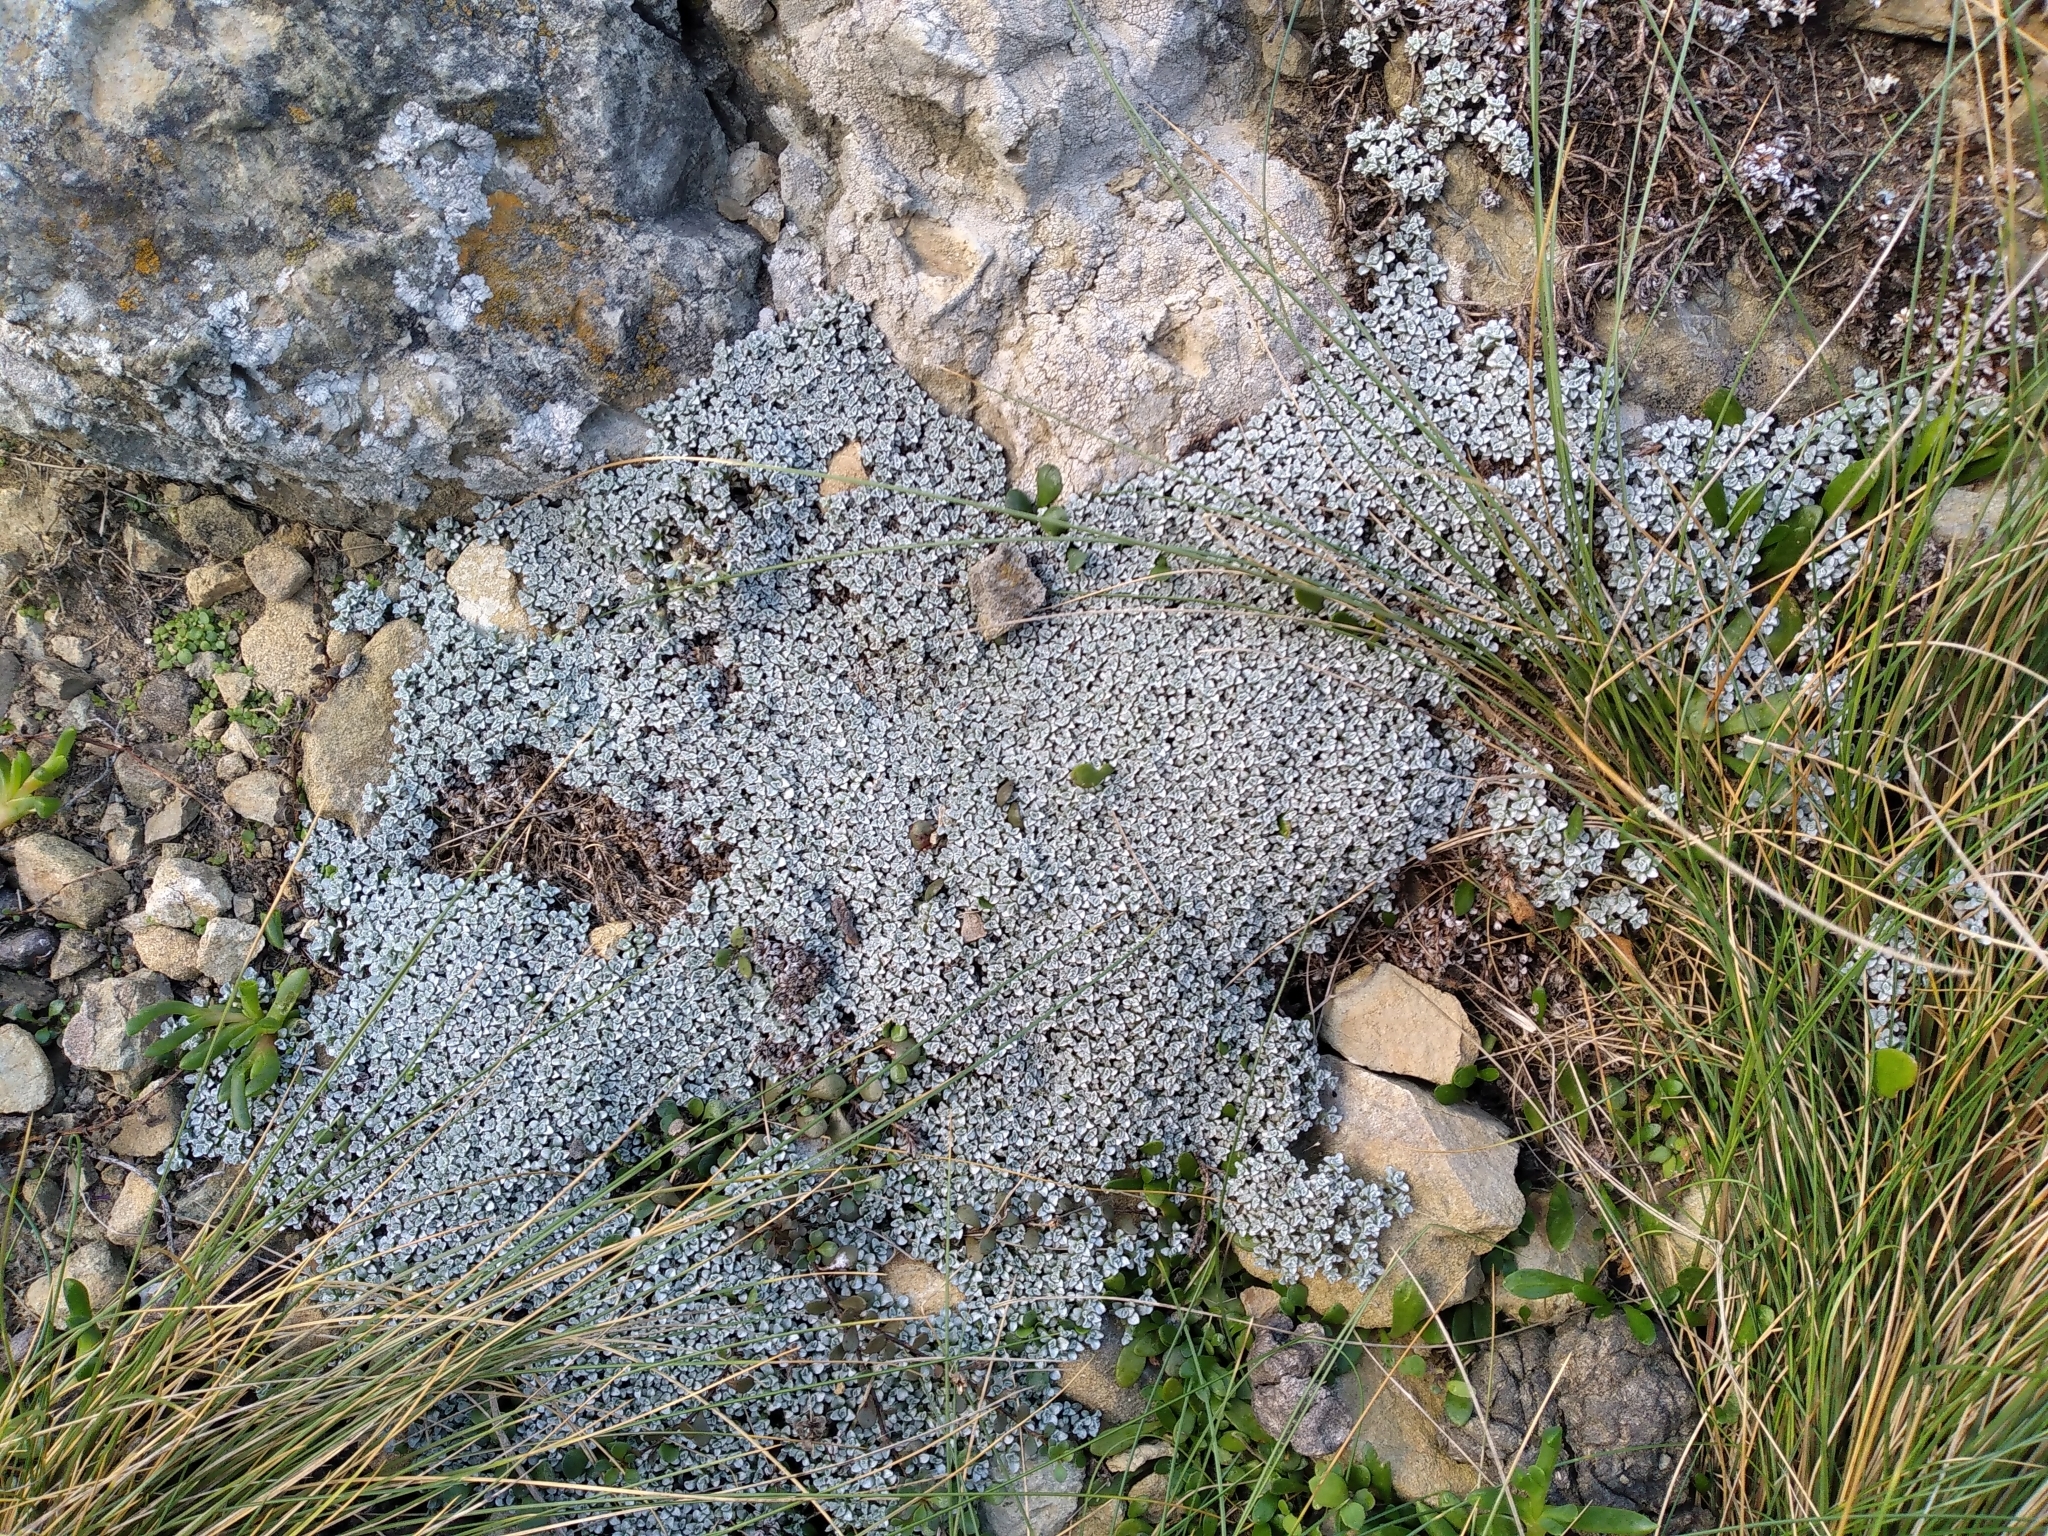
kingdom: Plantae
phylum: Tracheophyta
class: Magnoliopsida
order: Asterales
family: Asteraceae
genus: Raoulia
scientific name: Raoulia hookeri
